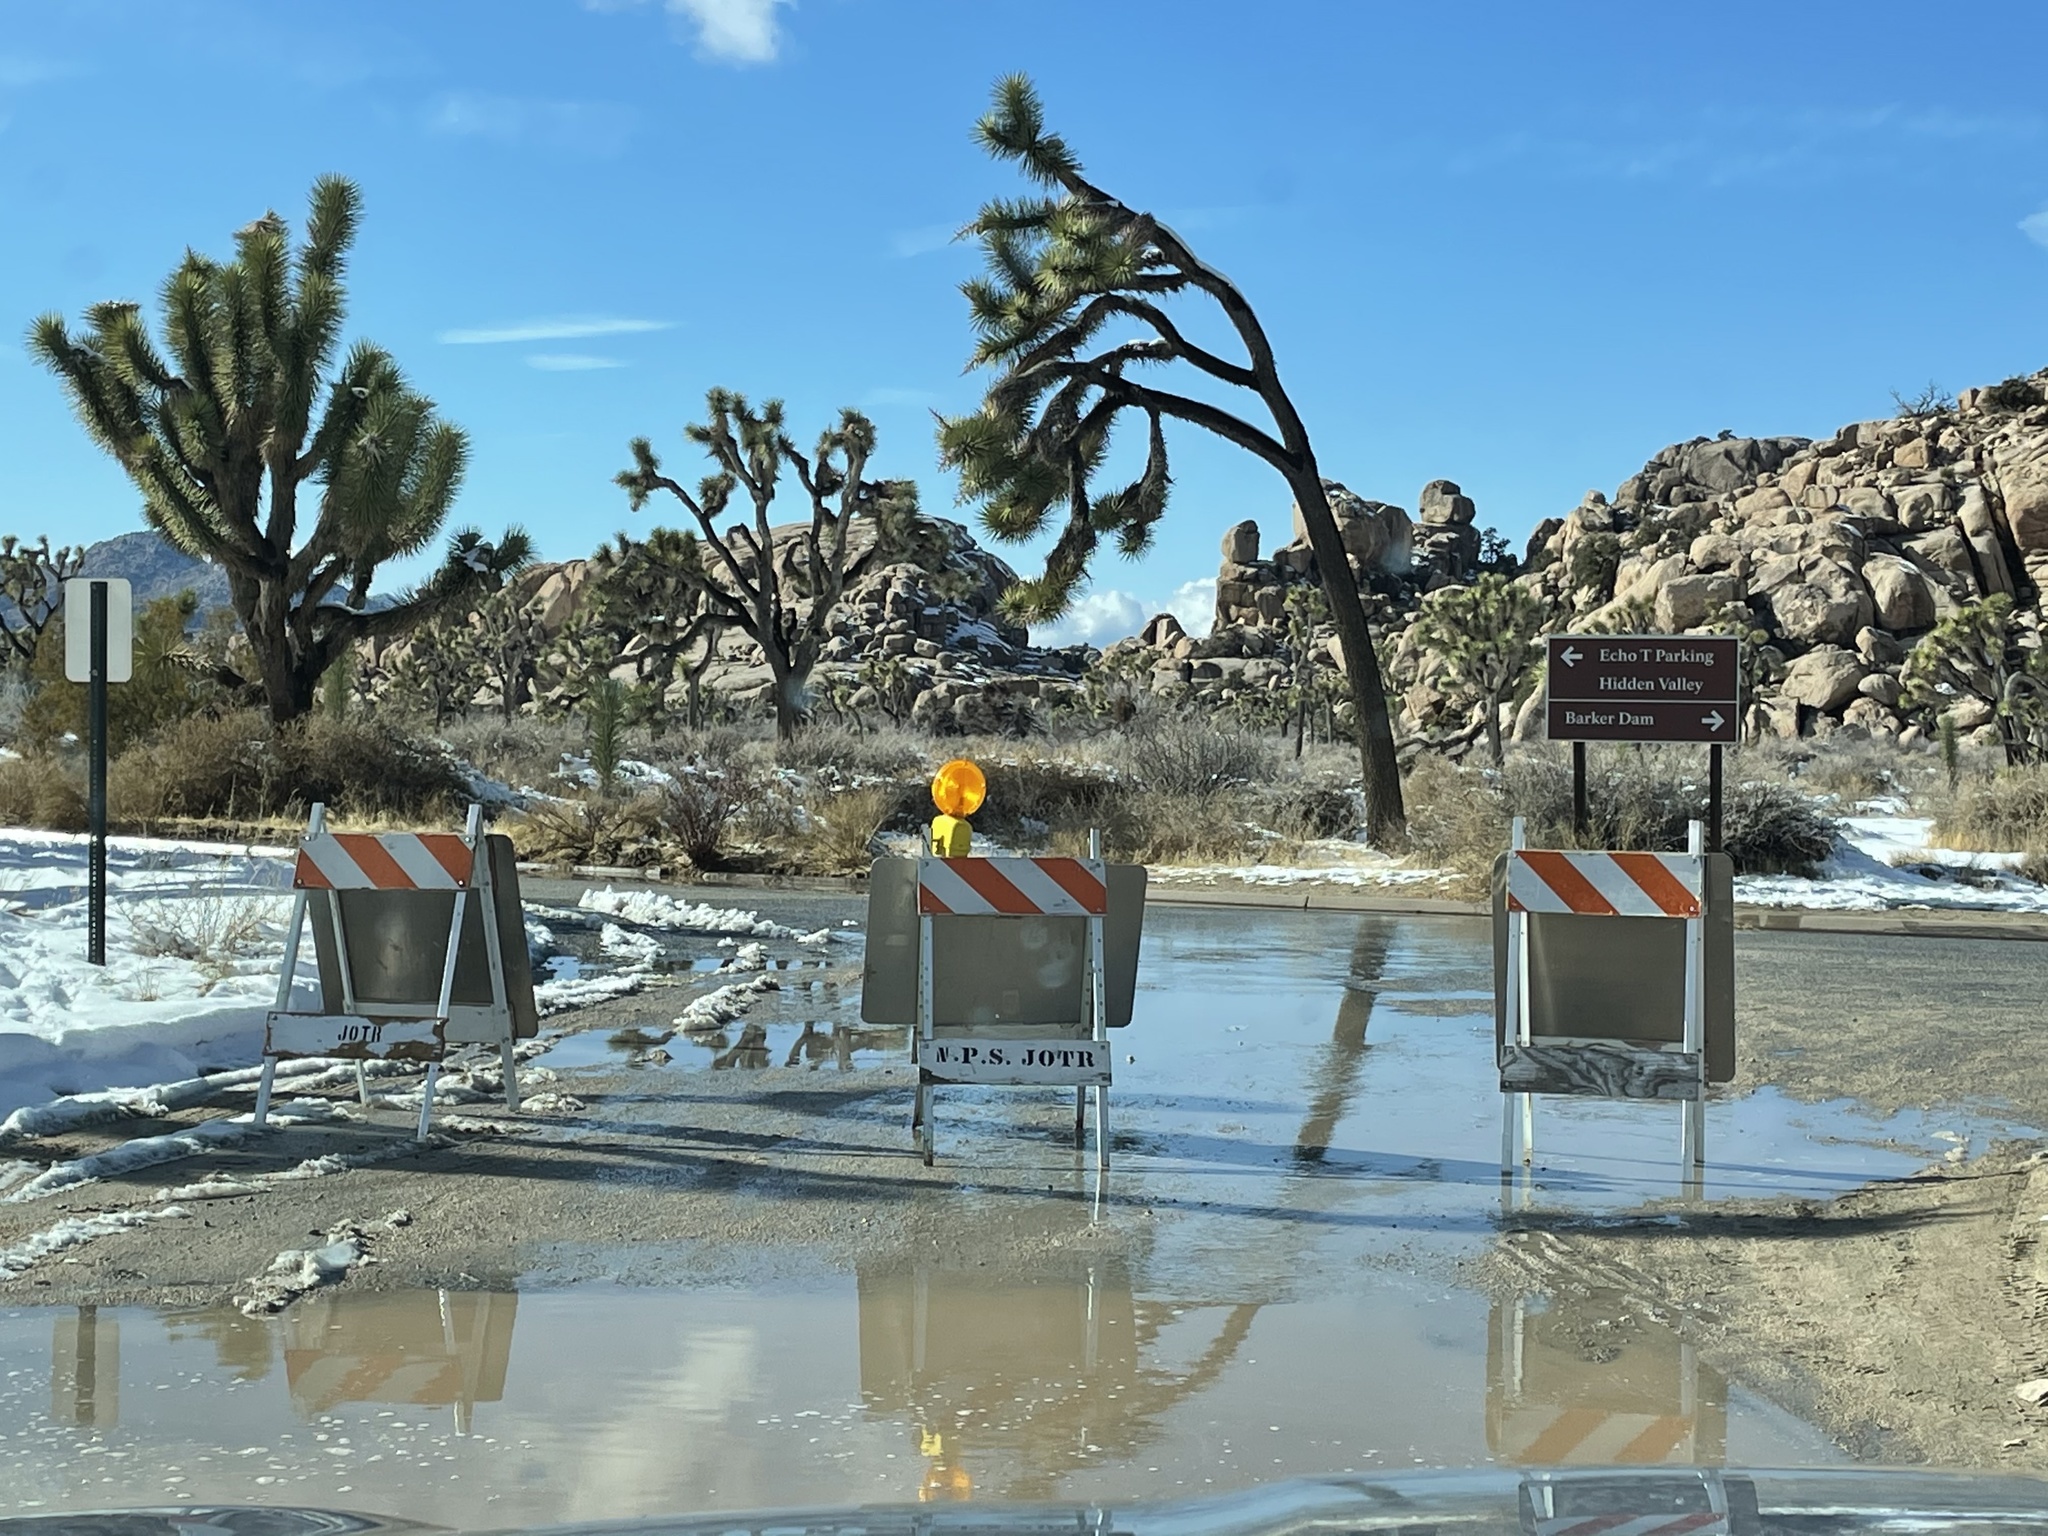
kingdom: Plantae
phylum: Tracheophyta
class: Liliopsida
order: Asparagales
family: Asparagaceae
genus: Yucca
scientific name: Yucca brevifolia
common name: Joshua tree
